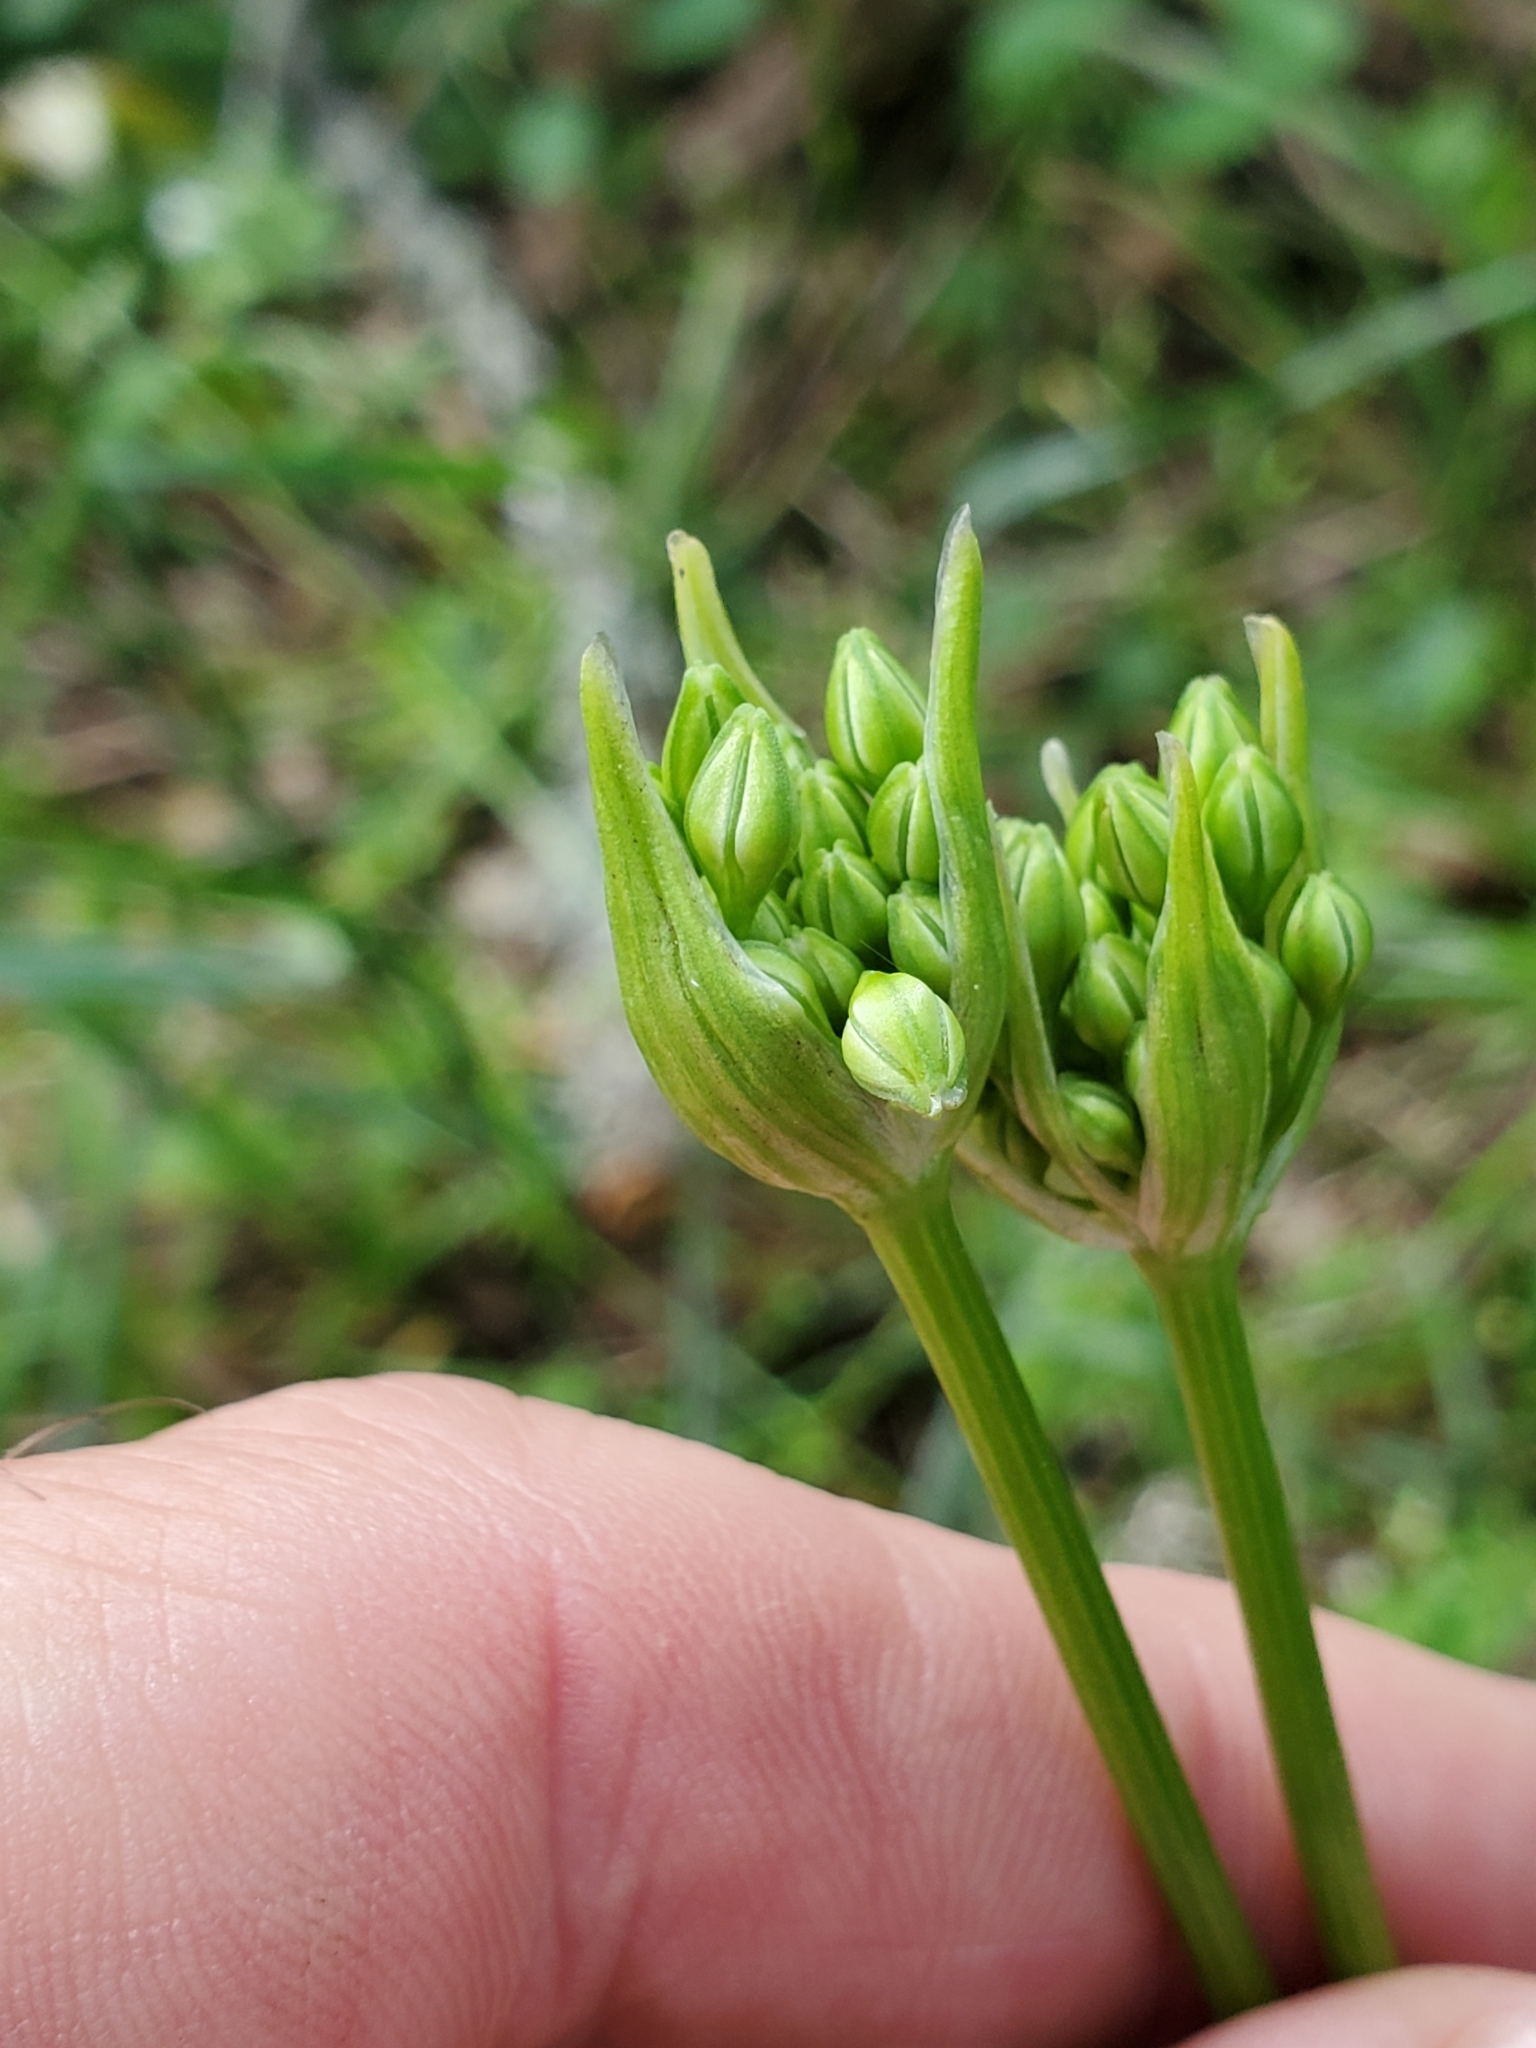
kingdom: Plantae
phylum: Tracheophyta
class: Liliopsida
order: Asparagales
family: Asparagaceae
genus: Triteleia
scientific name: Triteleia hyacinthina
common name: White brodiaea
